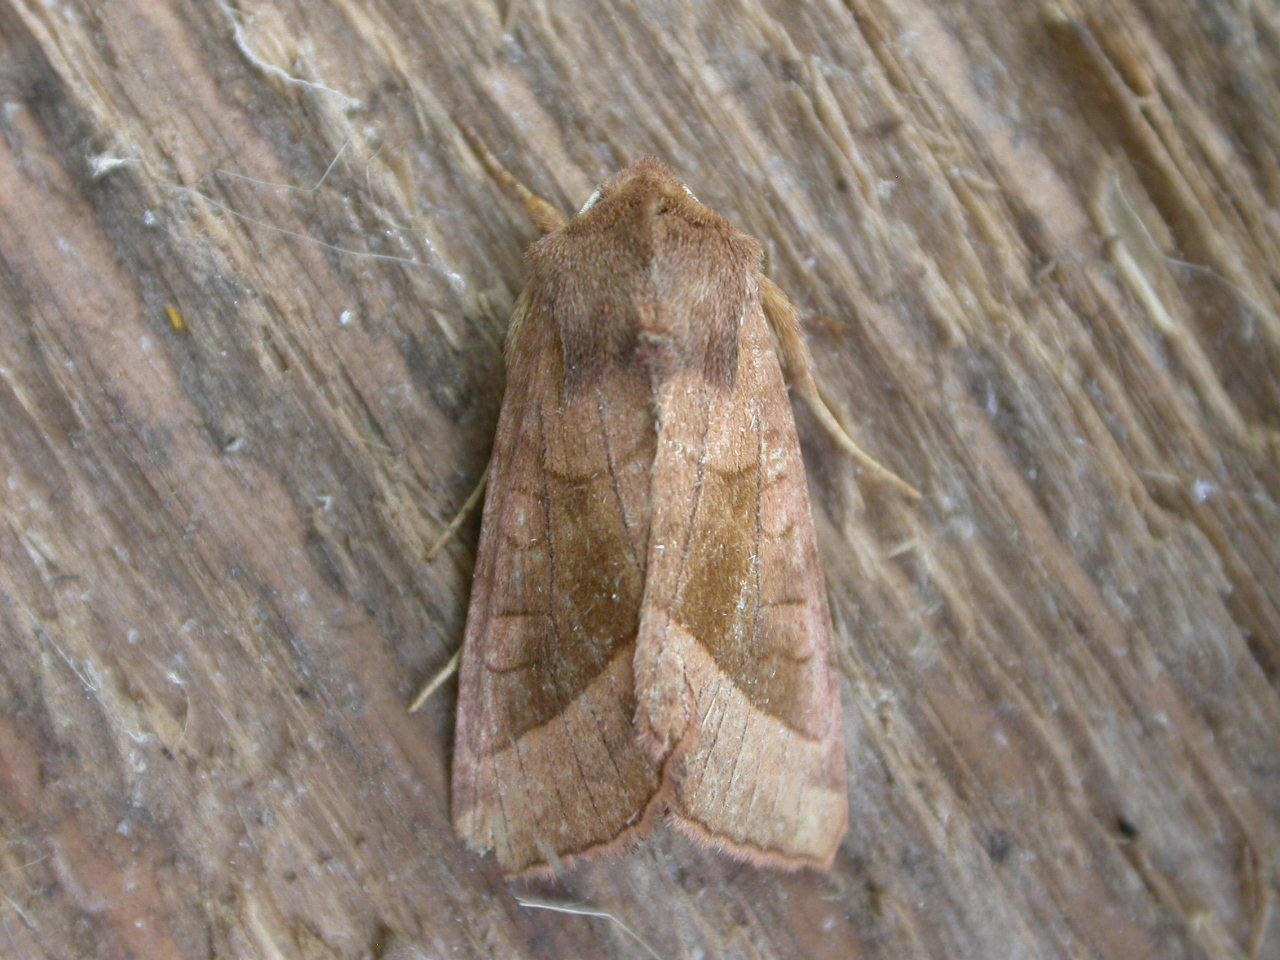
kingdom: Animalia
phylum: Arthropoda
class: Insecta
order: Lepidoptera
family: Noctuidae
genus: Hydraecia
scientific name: Hydraecia micacea
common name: Rosy rustic
